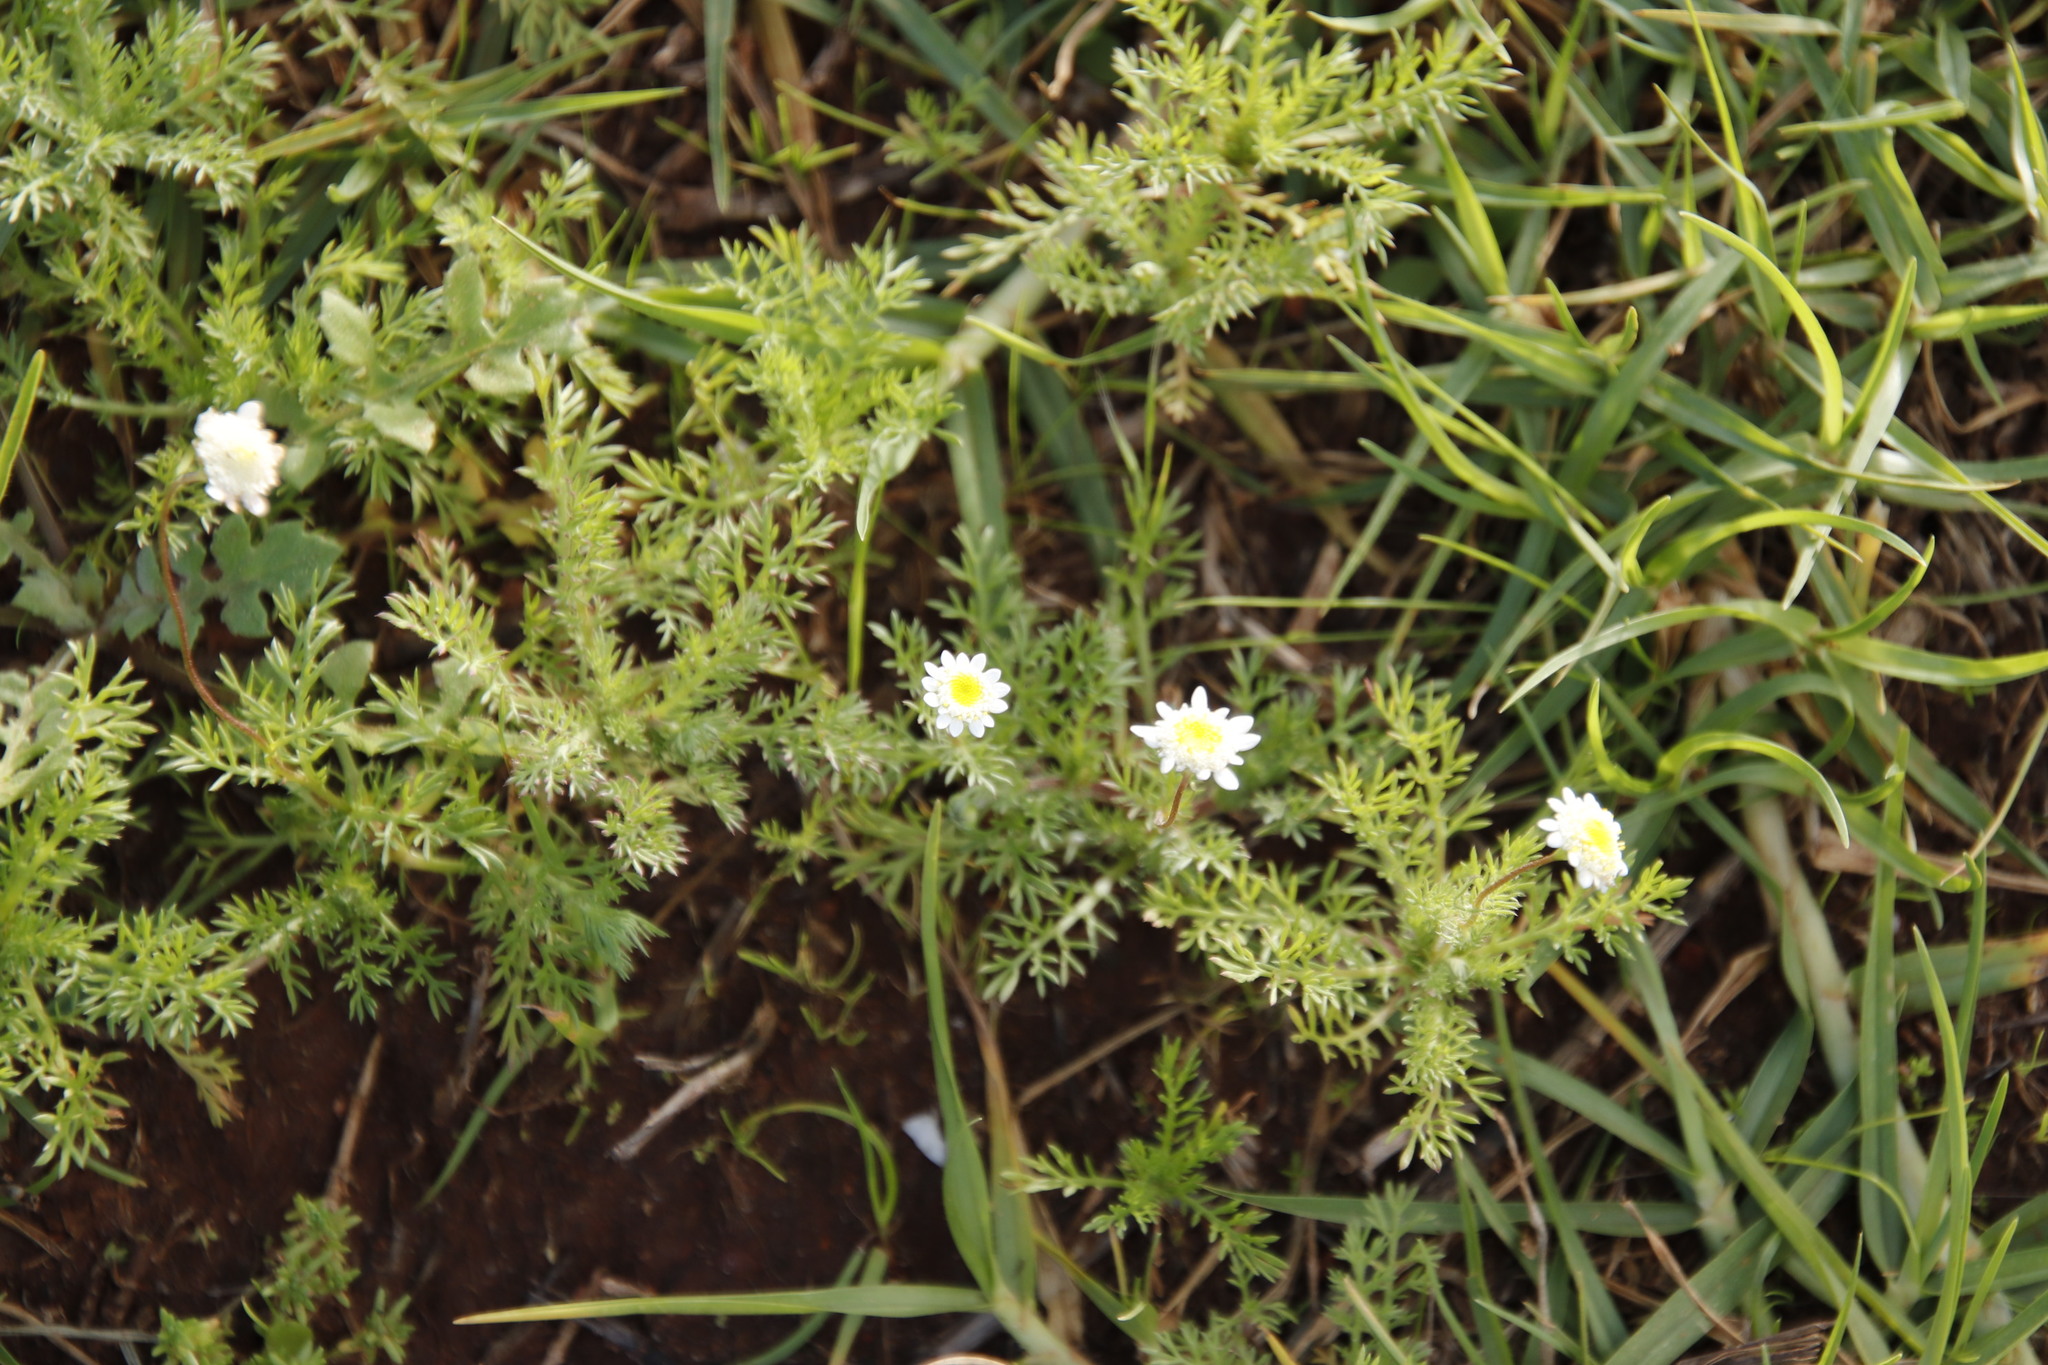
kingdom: Plantae
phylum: Tracheophyta
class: Magnoliopsida
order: Asterales
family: Asteraceae
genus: Cotula
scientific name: Cotula turbinata
